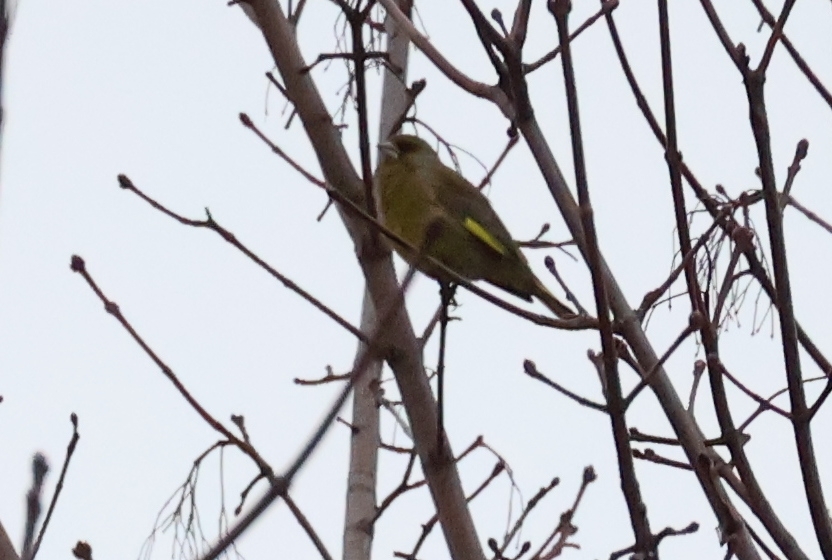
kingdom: Plantae
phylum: Tracheophyta
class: Liliopsida
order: Poales
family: Poaceae
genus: Chloris
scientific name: Chloris chloris
